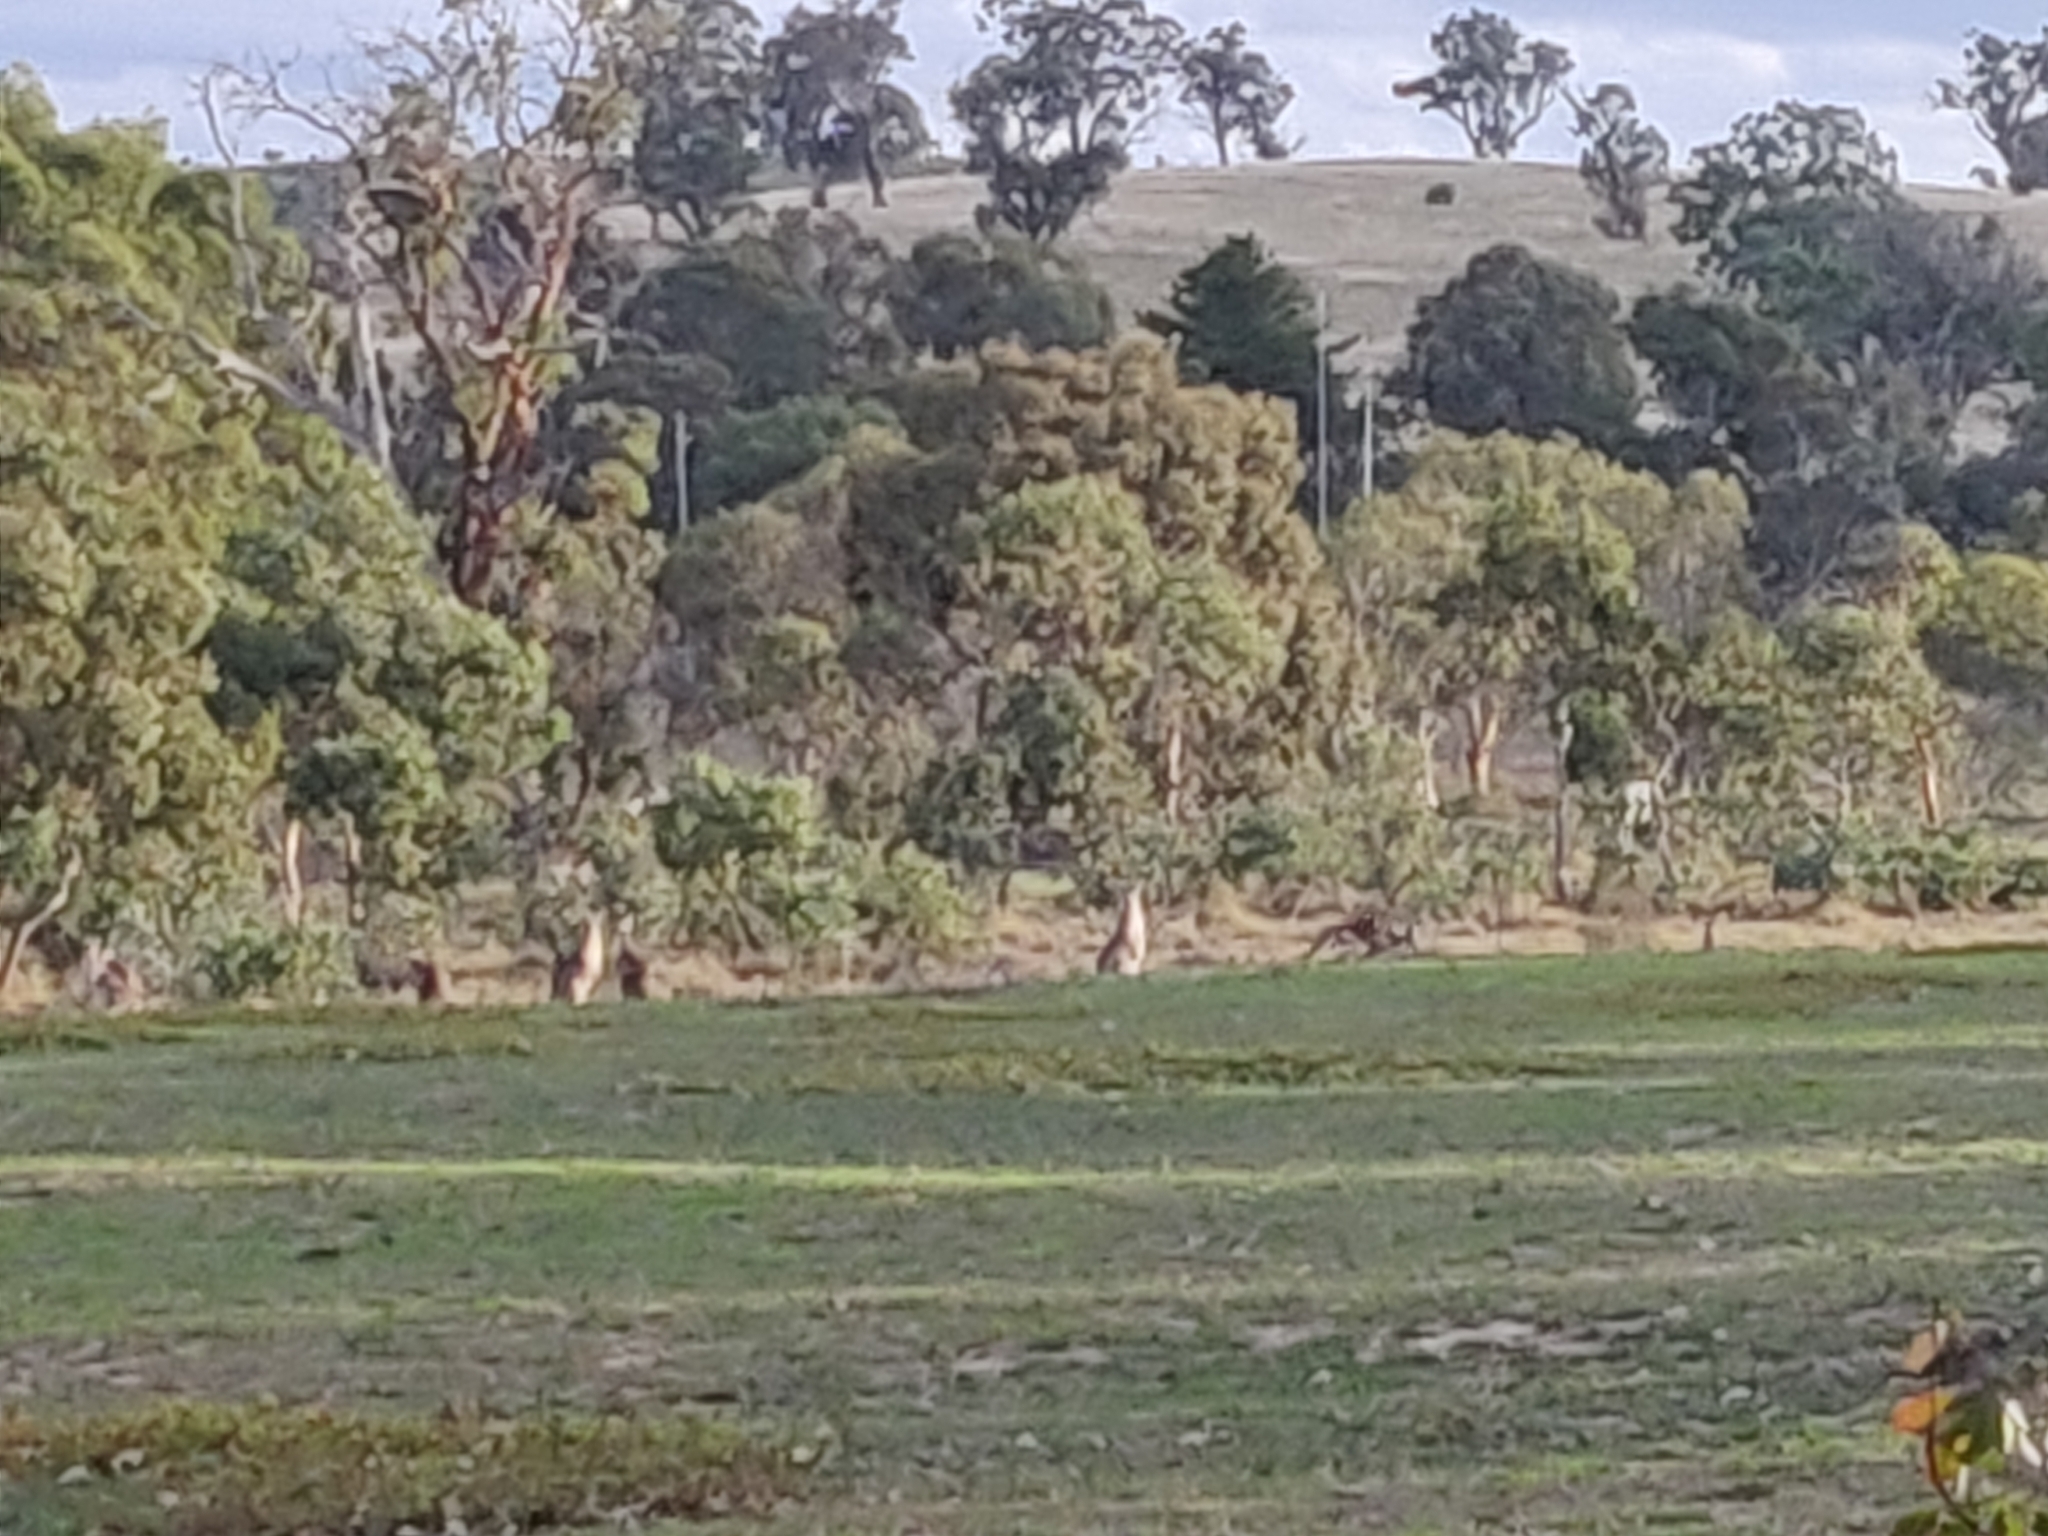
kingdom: Animalia
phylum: Chordata
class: Mammalia
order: Diprotodontia
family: Macropodidae
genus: Macropus
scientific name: Macropus giganteus
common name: Eastern grey kangaroo
